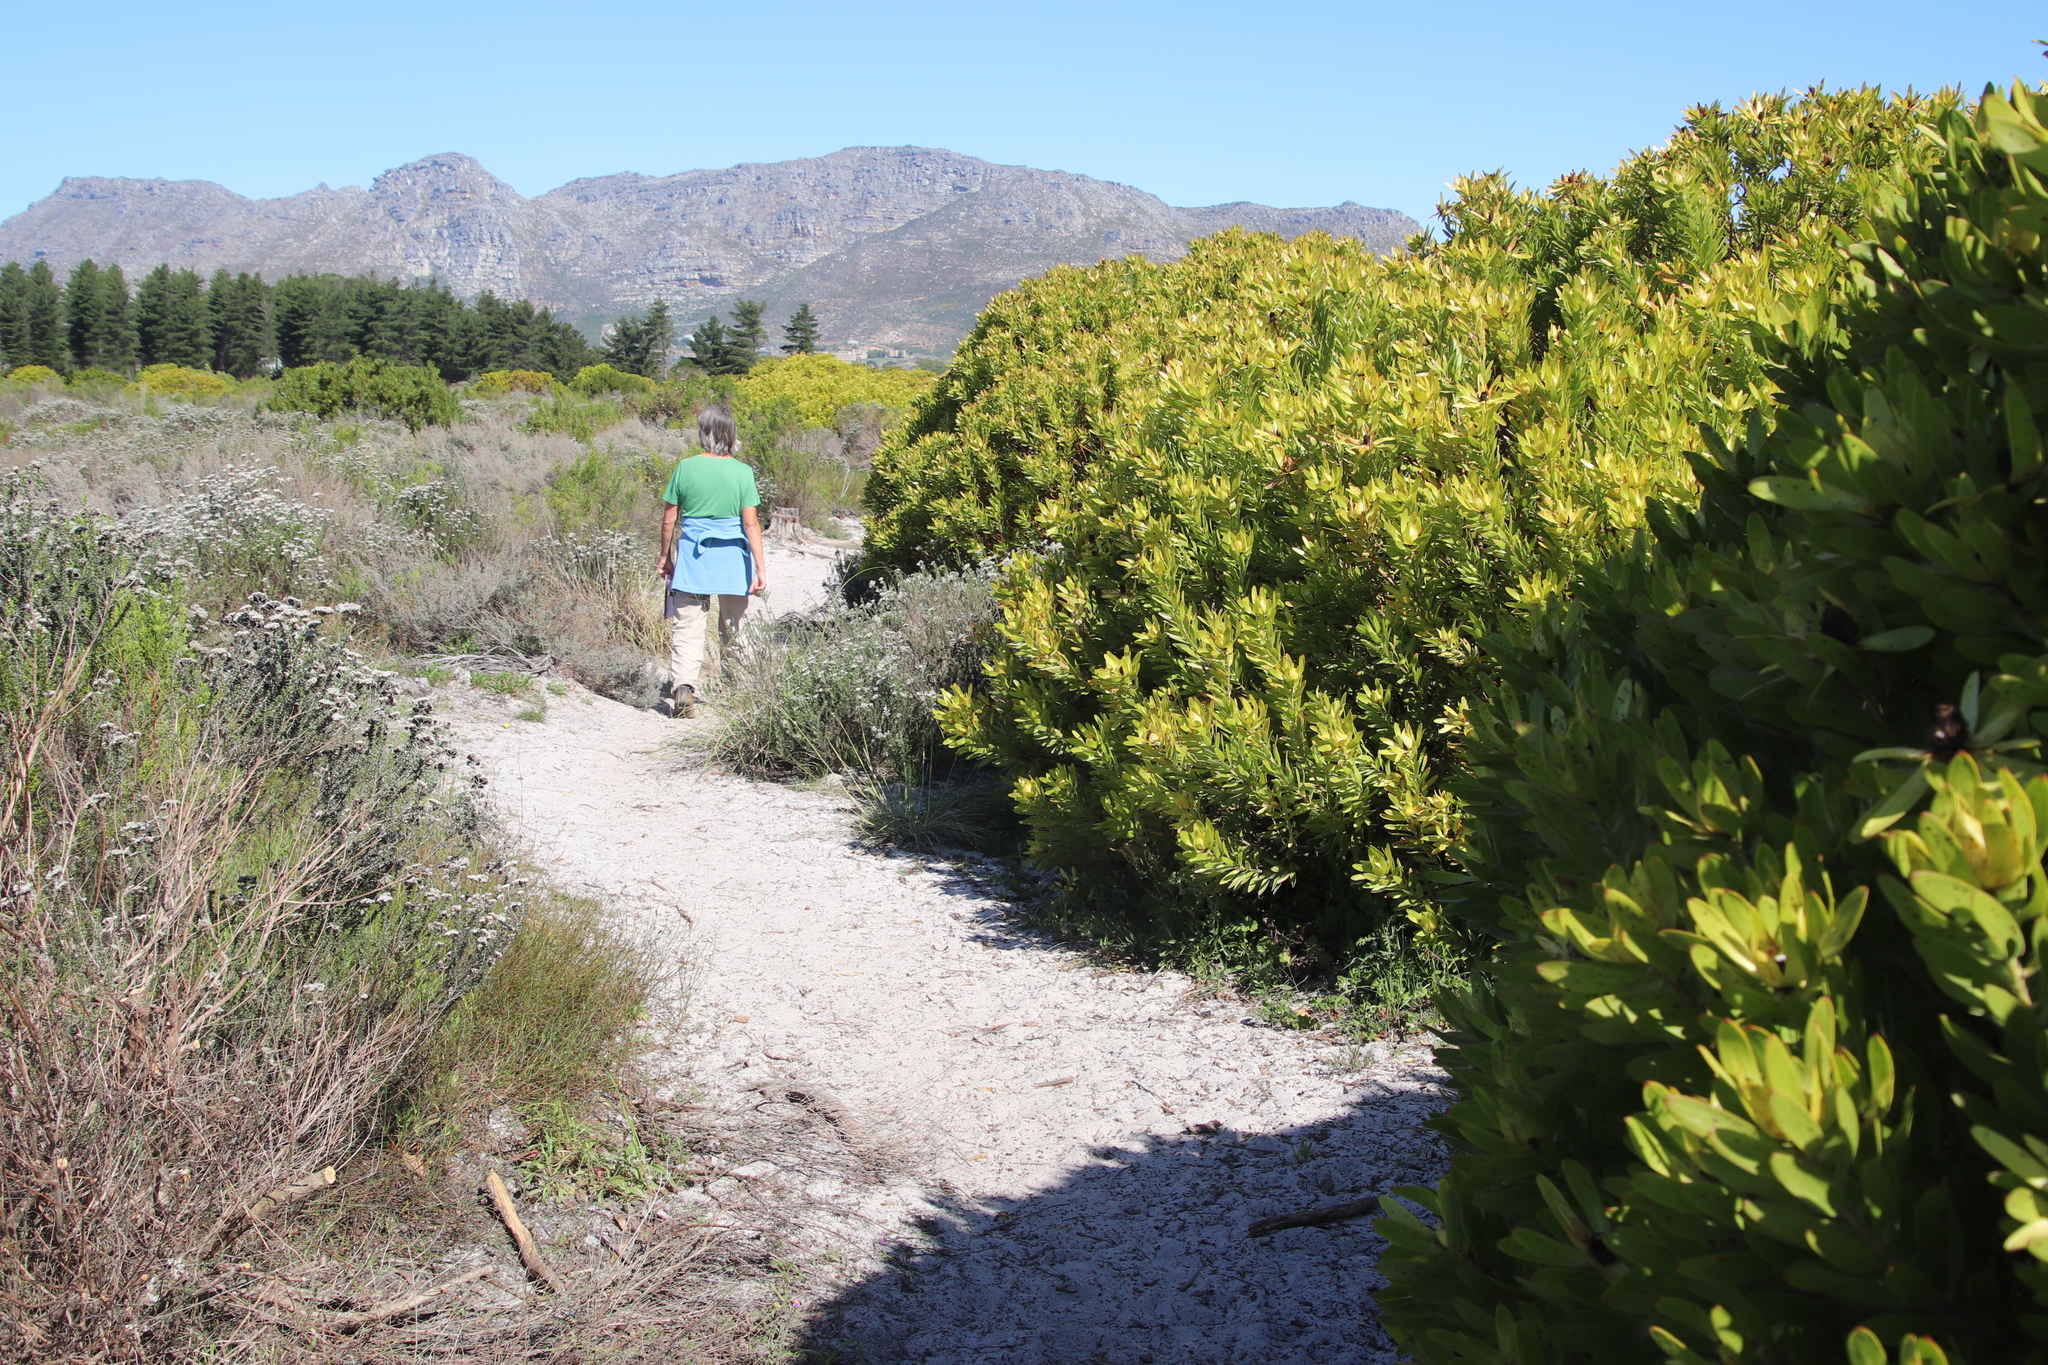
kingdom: Plantae
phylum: Tracheophyta
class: Magnoliopsida
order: Proteales
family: Proteaceae
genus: Leucadendron
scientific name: Leucadendron laureolum
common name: Golden sunshinebush
